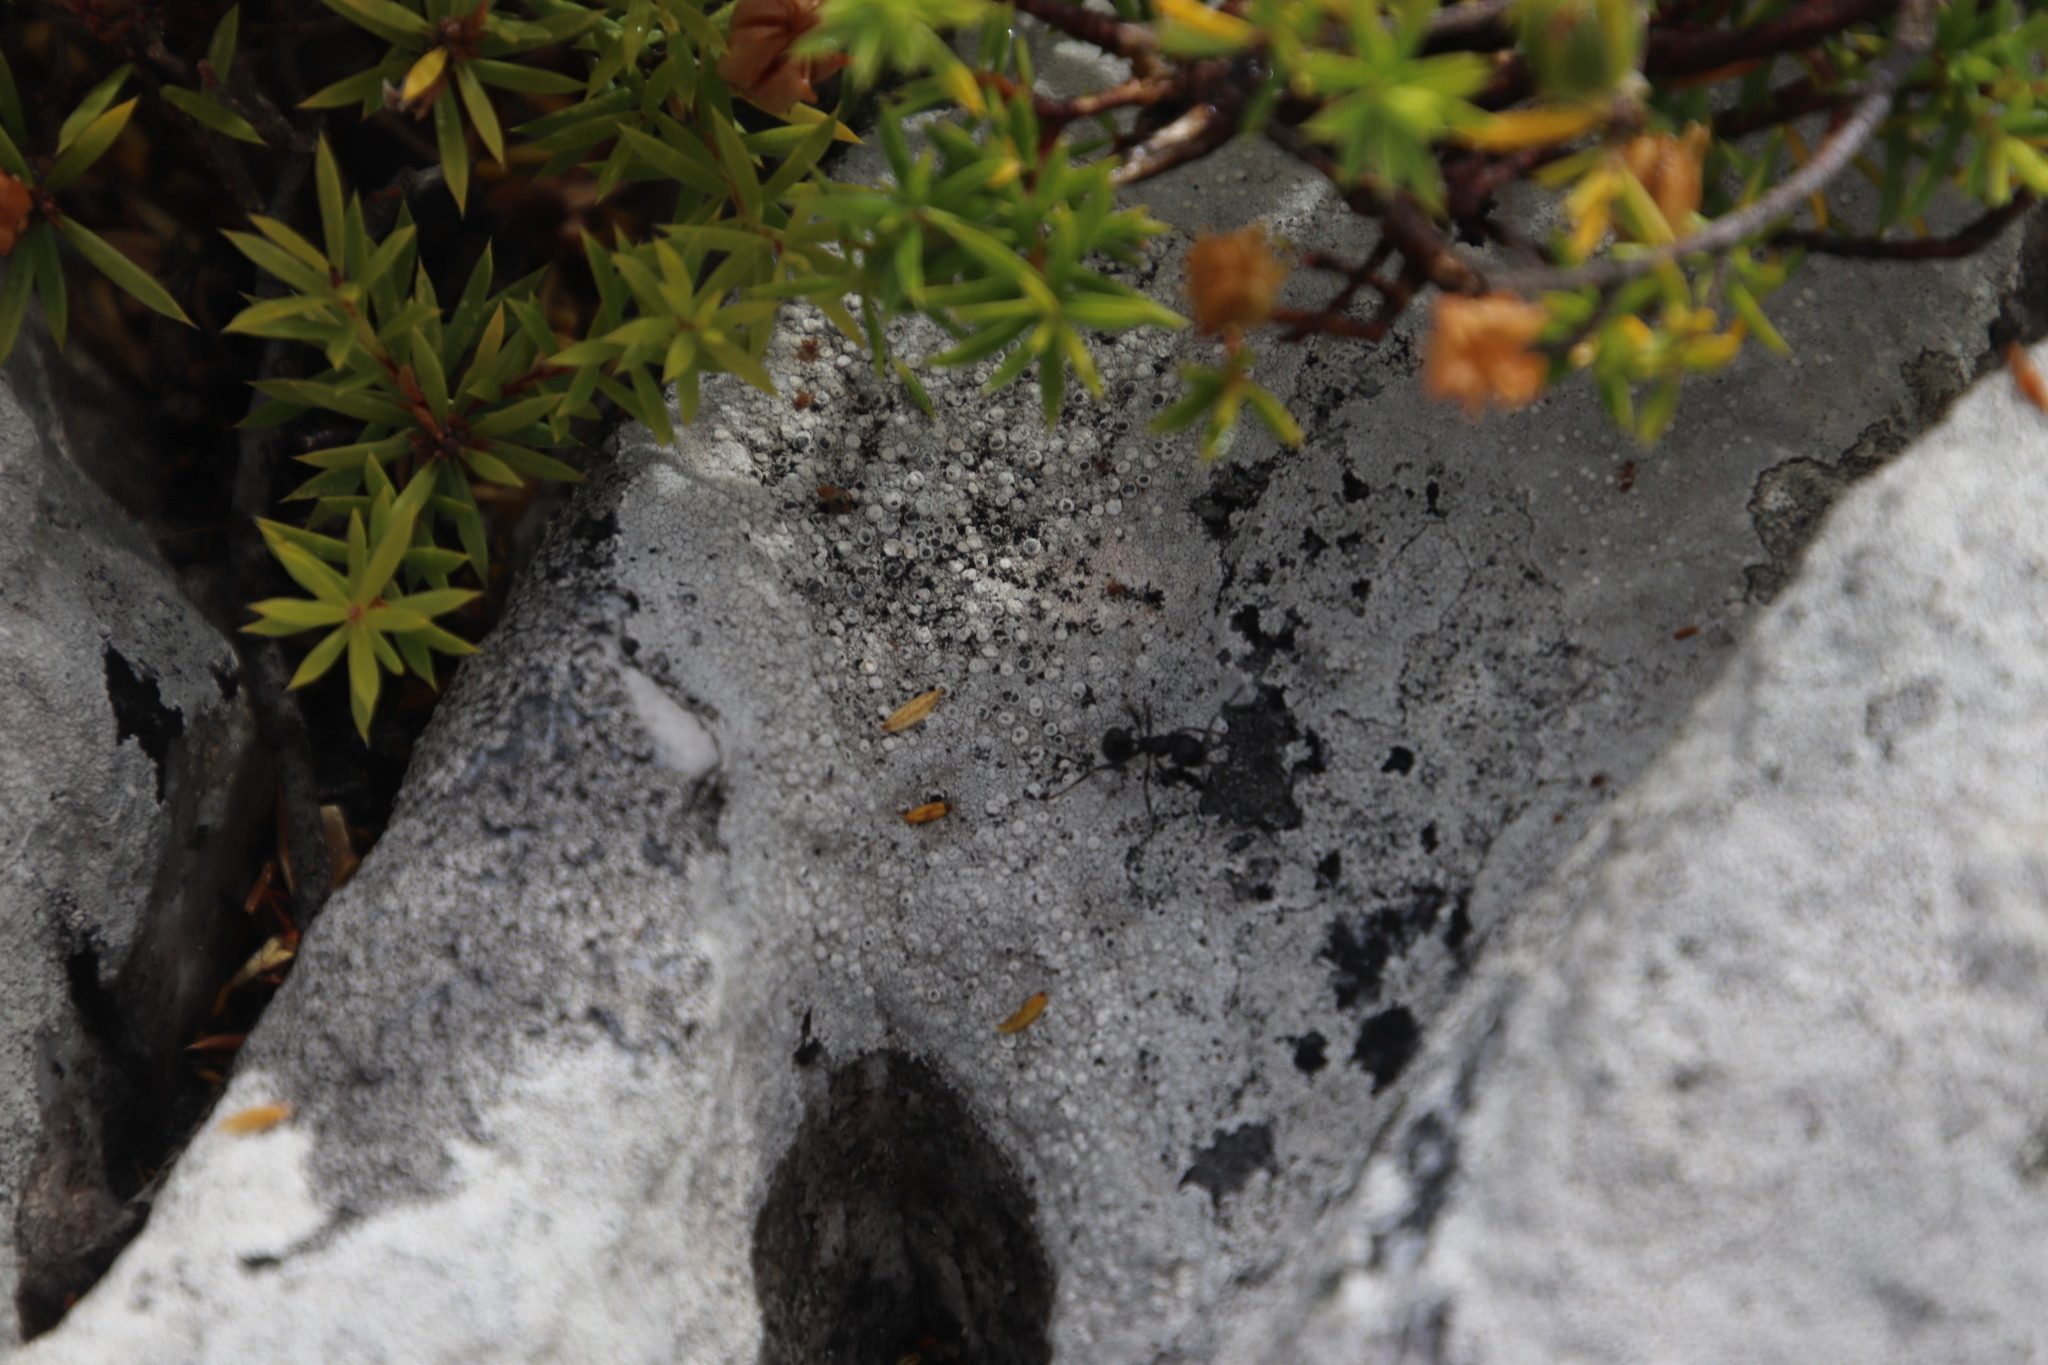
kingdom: Animalia
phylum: Arthropoda
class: Insecta
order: Hymenoptera
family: Formicidae
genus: Myrmicaria
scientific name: Myrmicaria nigra
